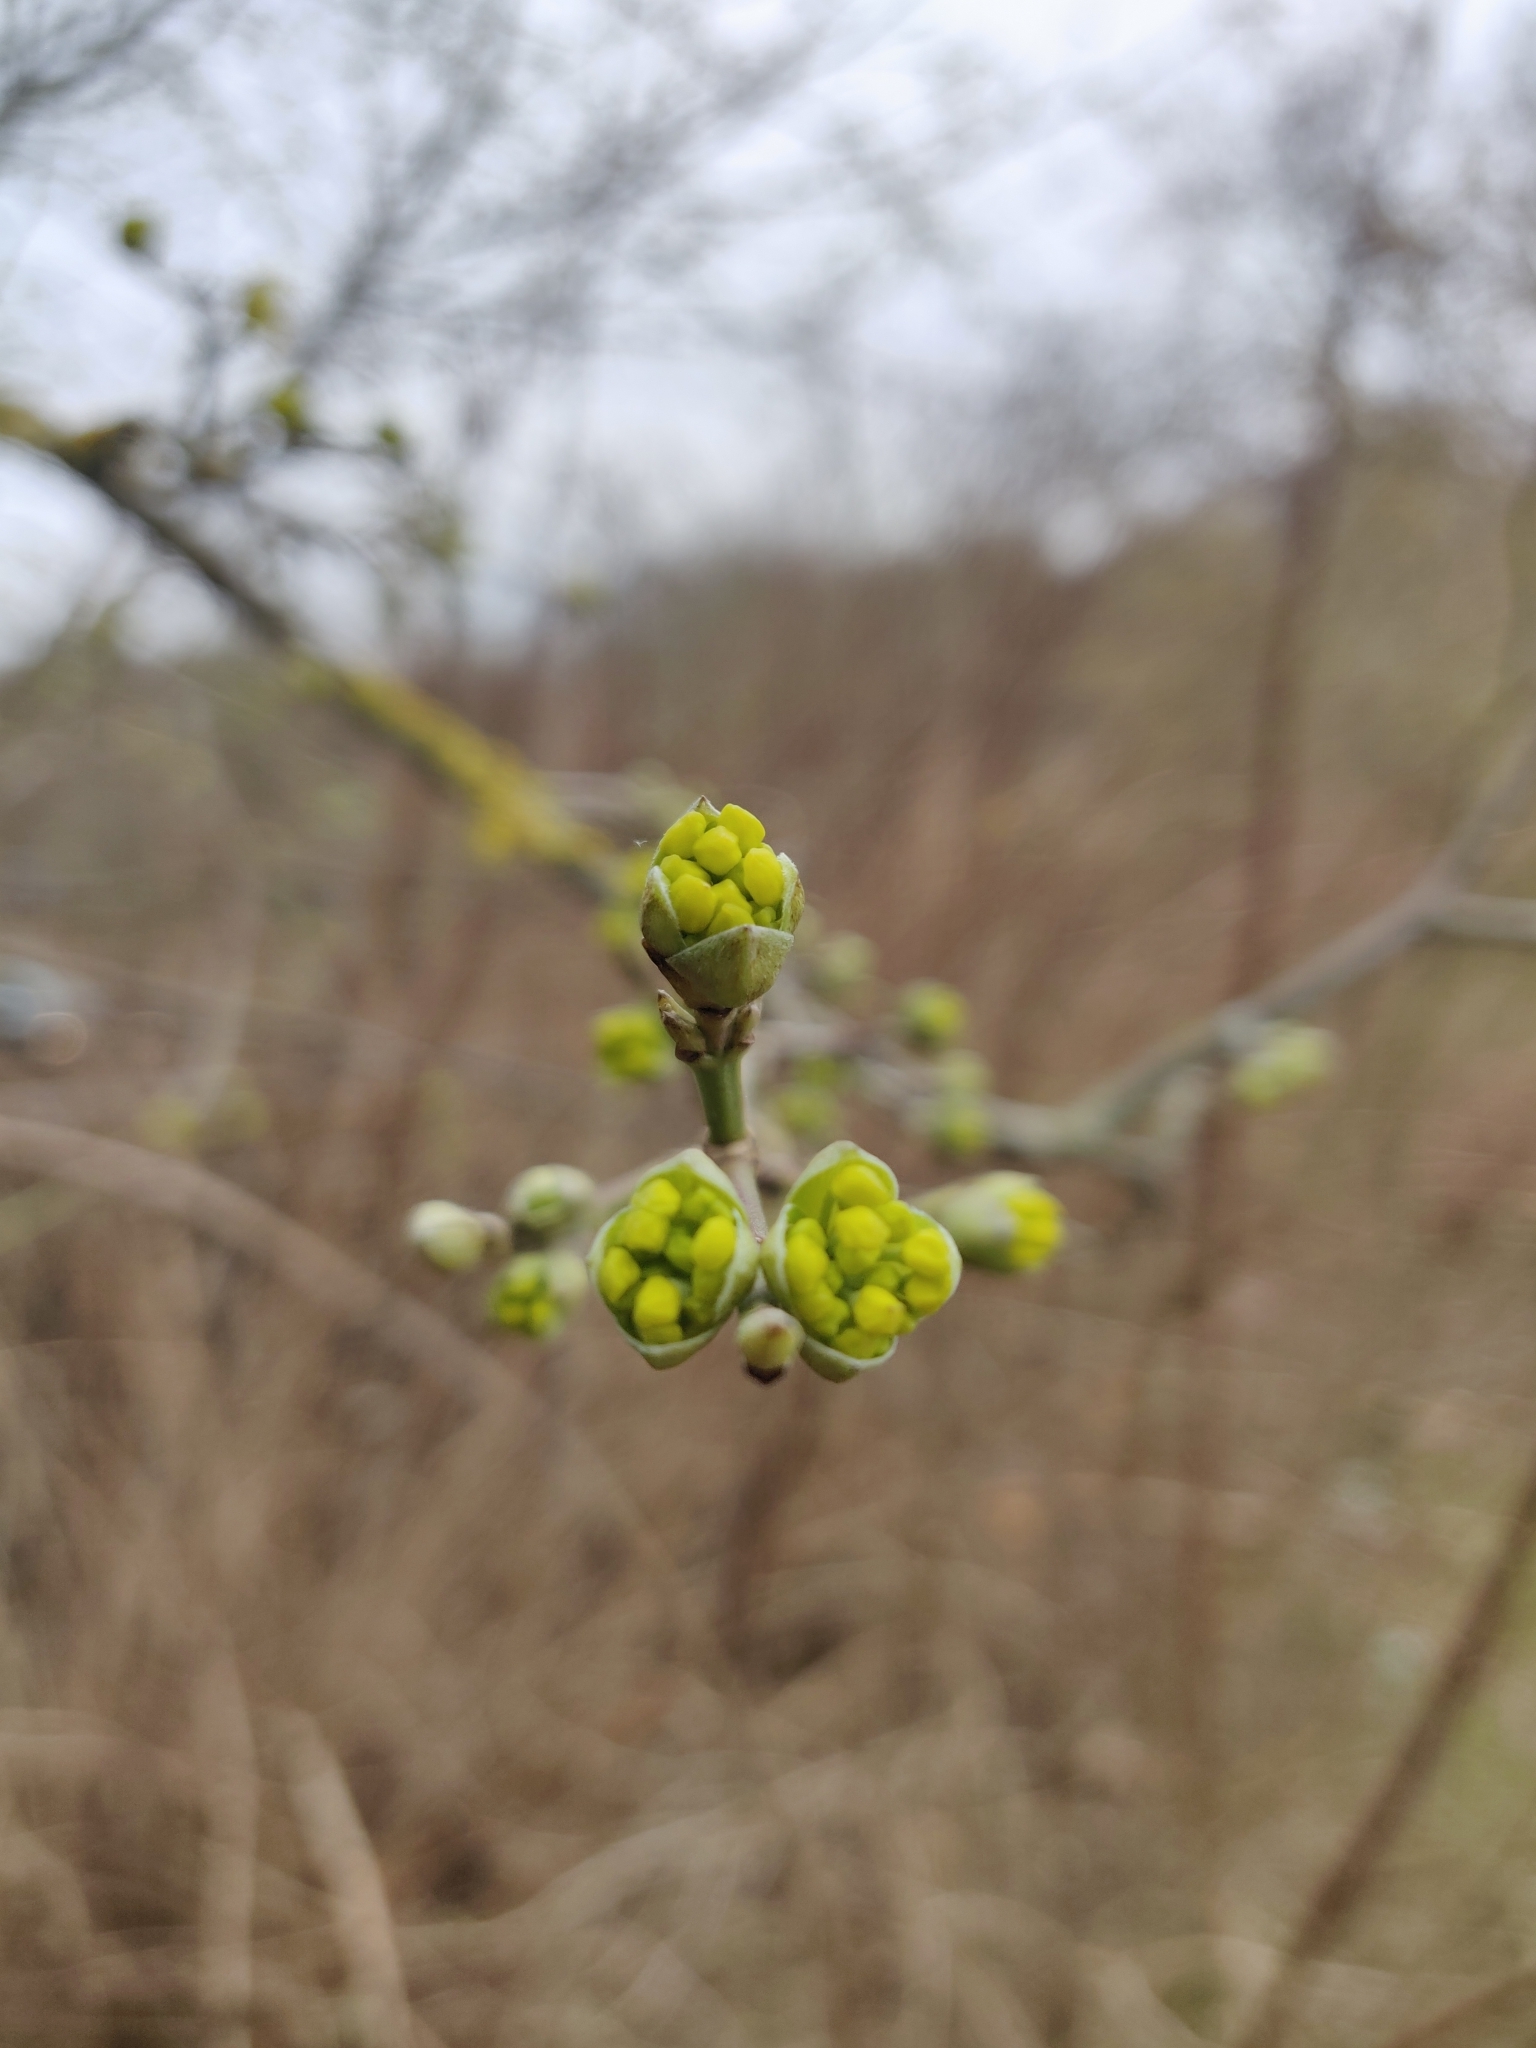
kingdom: Plantae
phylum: Tracheophyta
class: Magnoliopsida
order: Cornales
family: Cornaceae
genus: Cornus
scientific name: Cornus mas
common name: Cornelian-cherry
